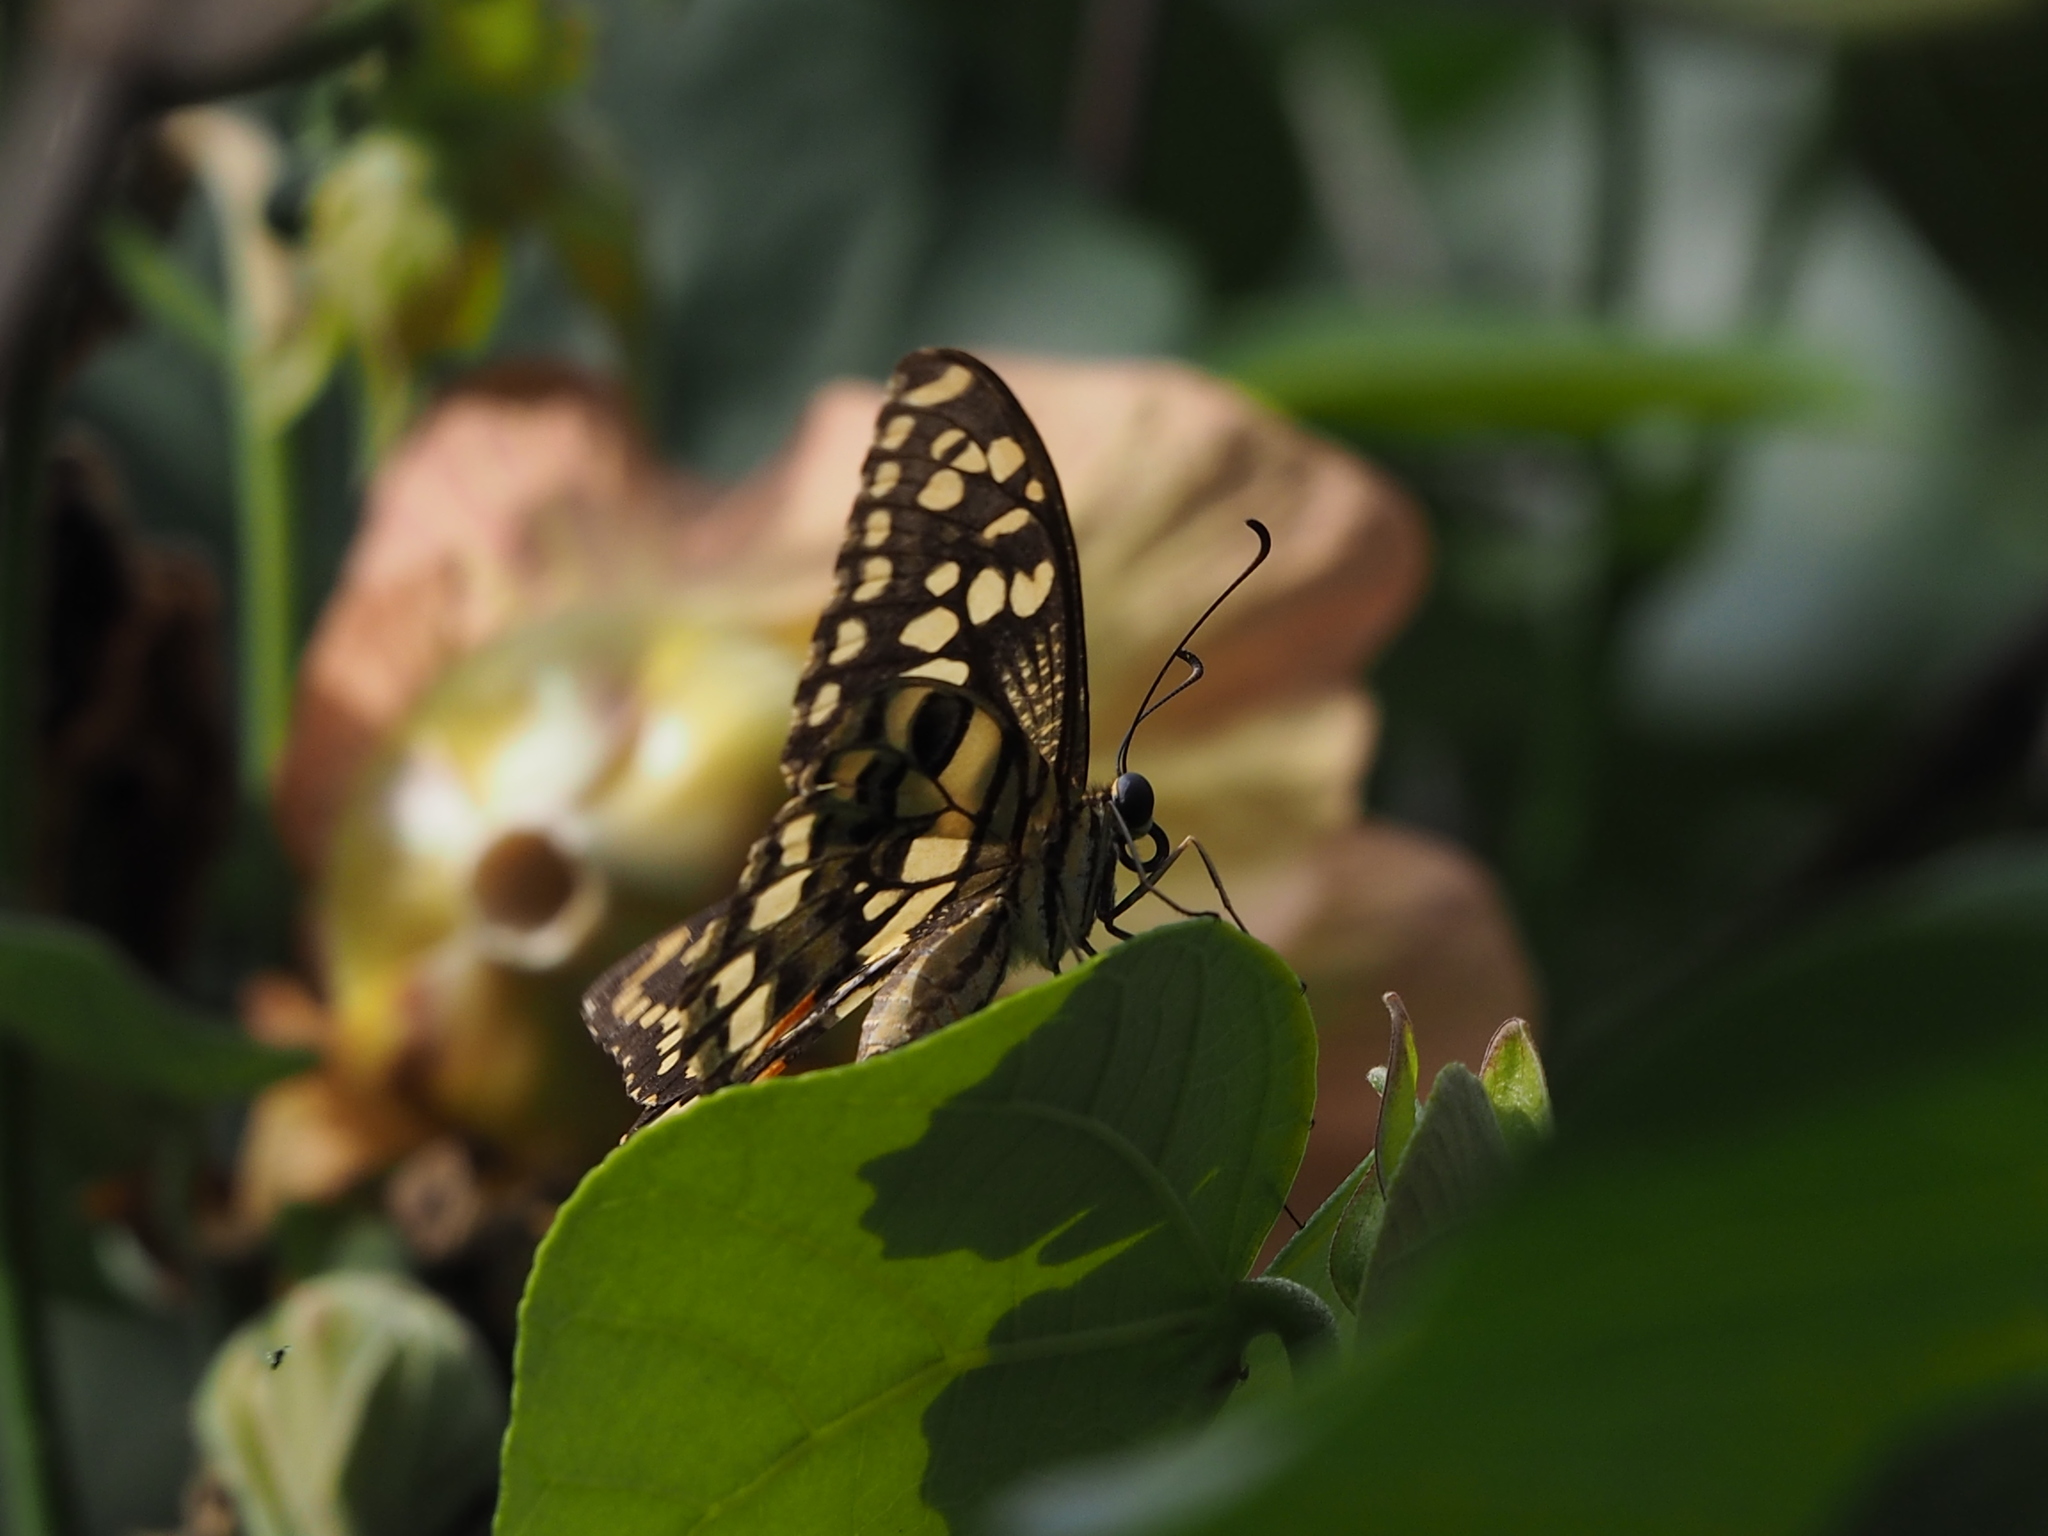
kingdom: Animalia
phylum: Arthropoda
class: Insecta
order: Lepidoptera
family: Papilionidae
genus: Papilio
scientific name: Papilio demoleus
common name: Lime butterfly
